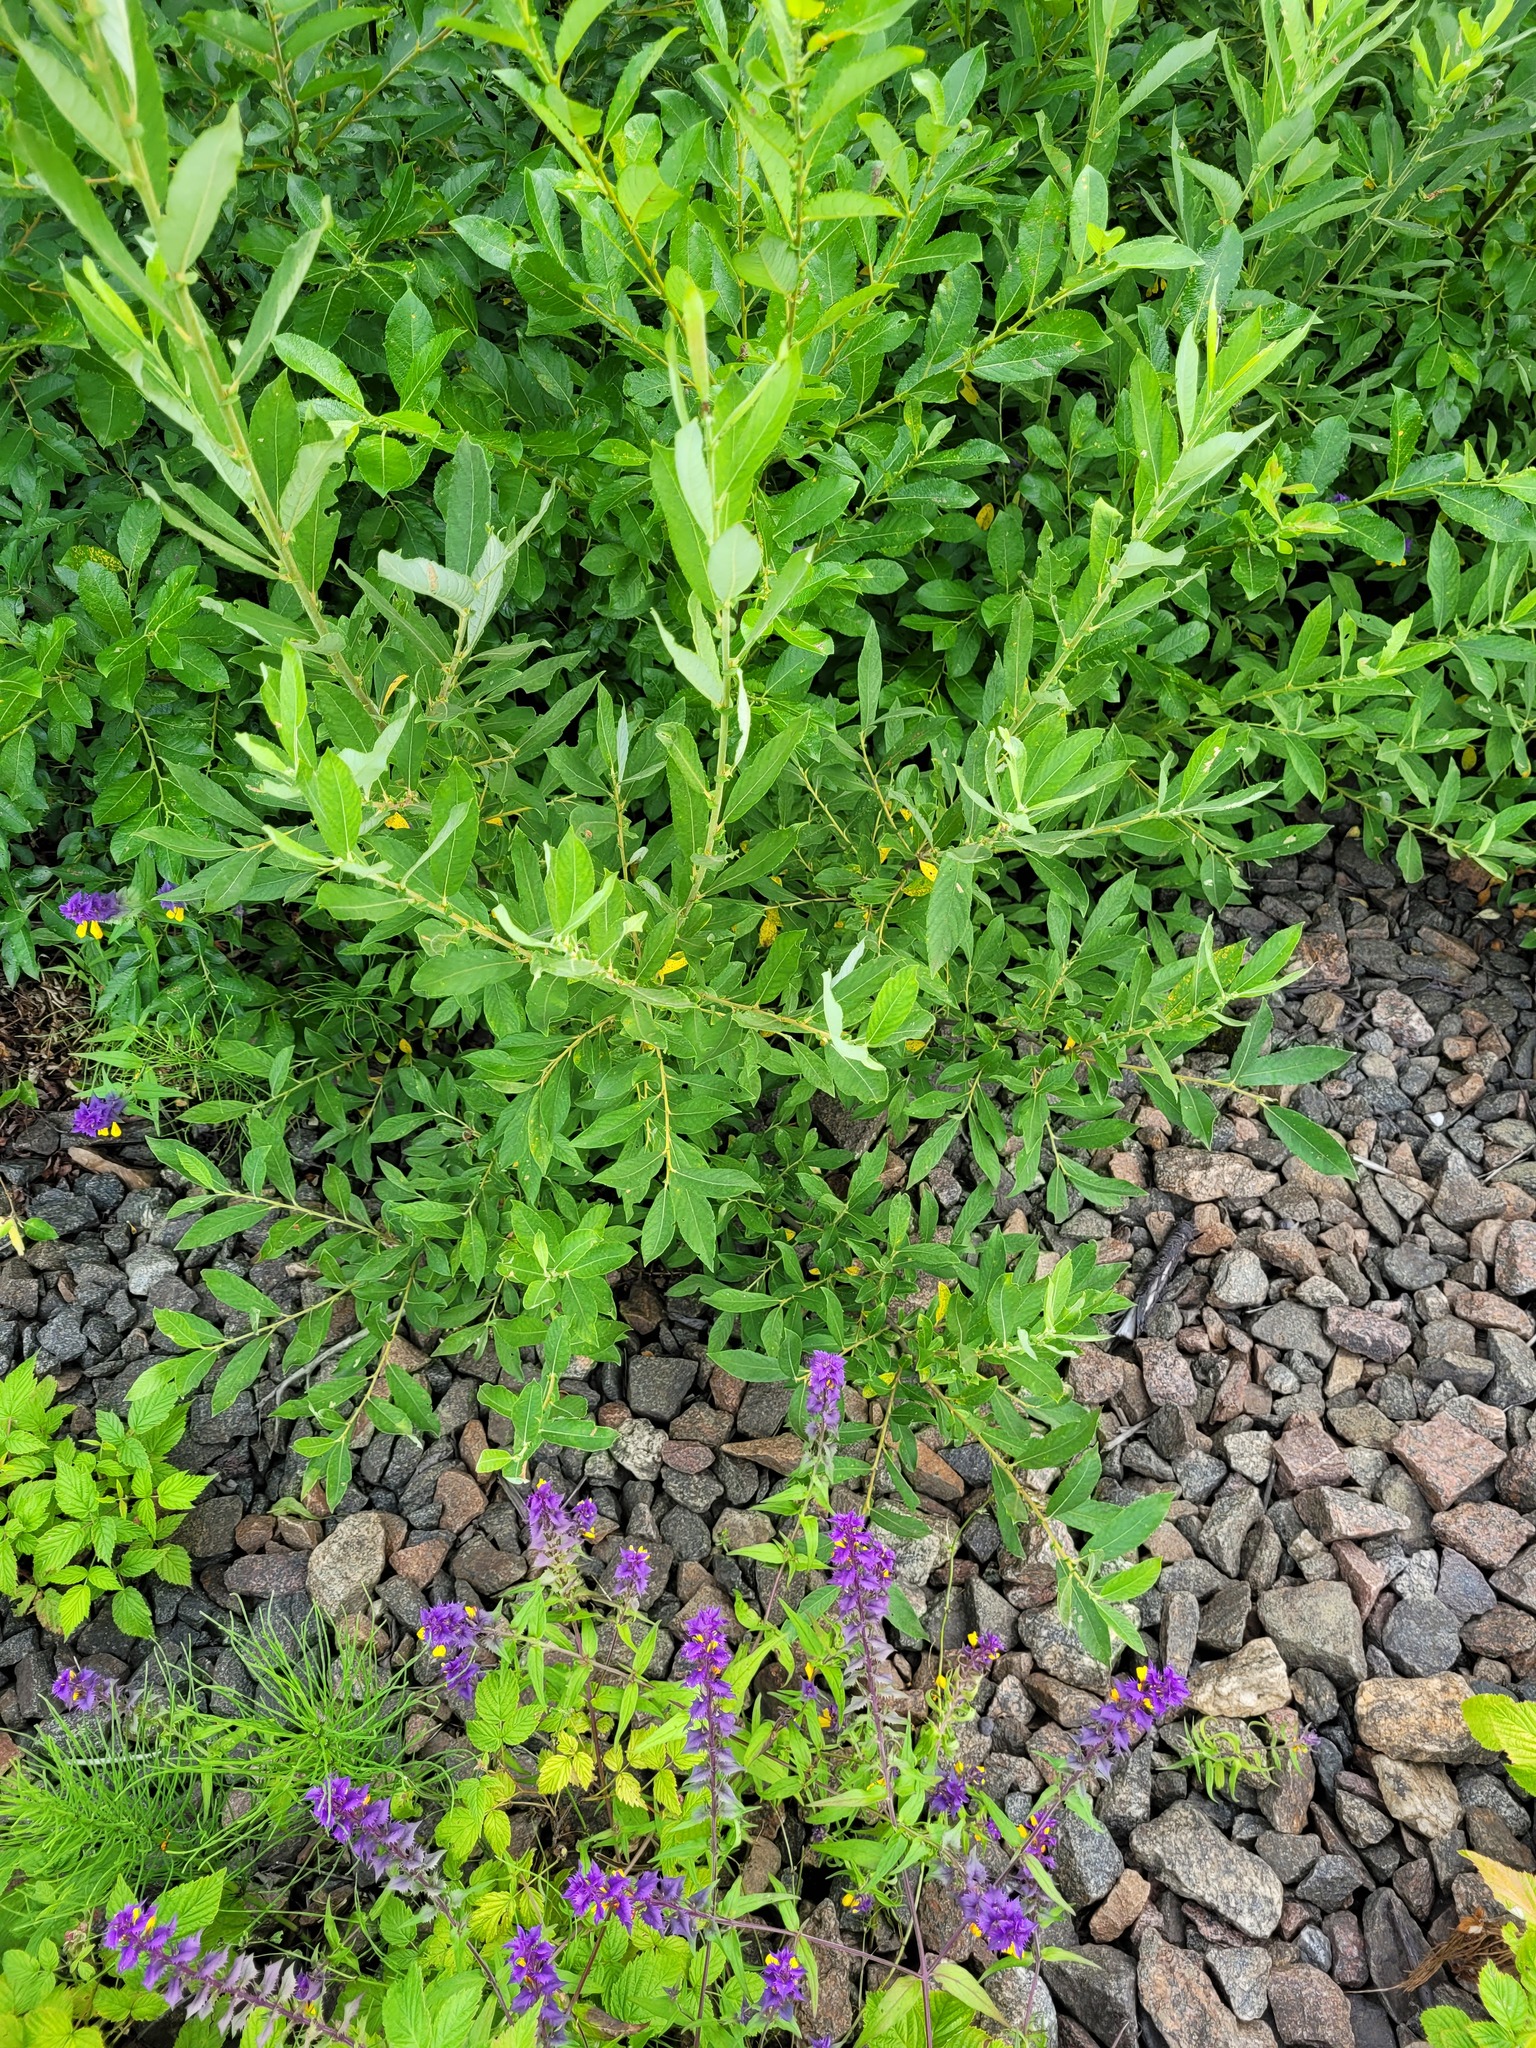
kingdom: Plantae
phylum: Tracheophyta
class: Magnoliopsida
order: Malpighiales
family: Salicaceae
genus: Salix
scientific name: Salix cinerea
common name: Common sallow
